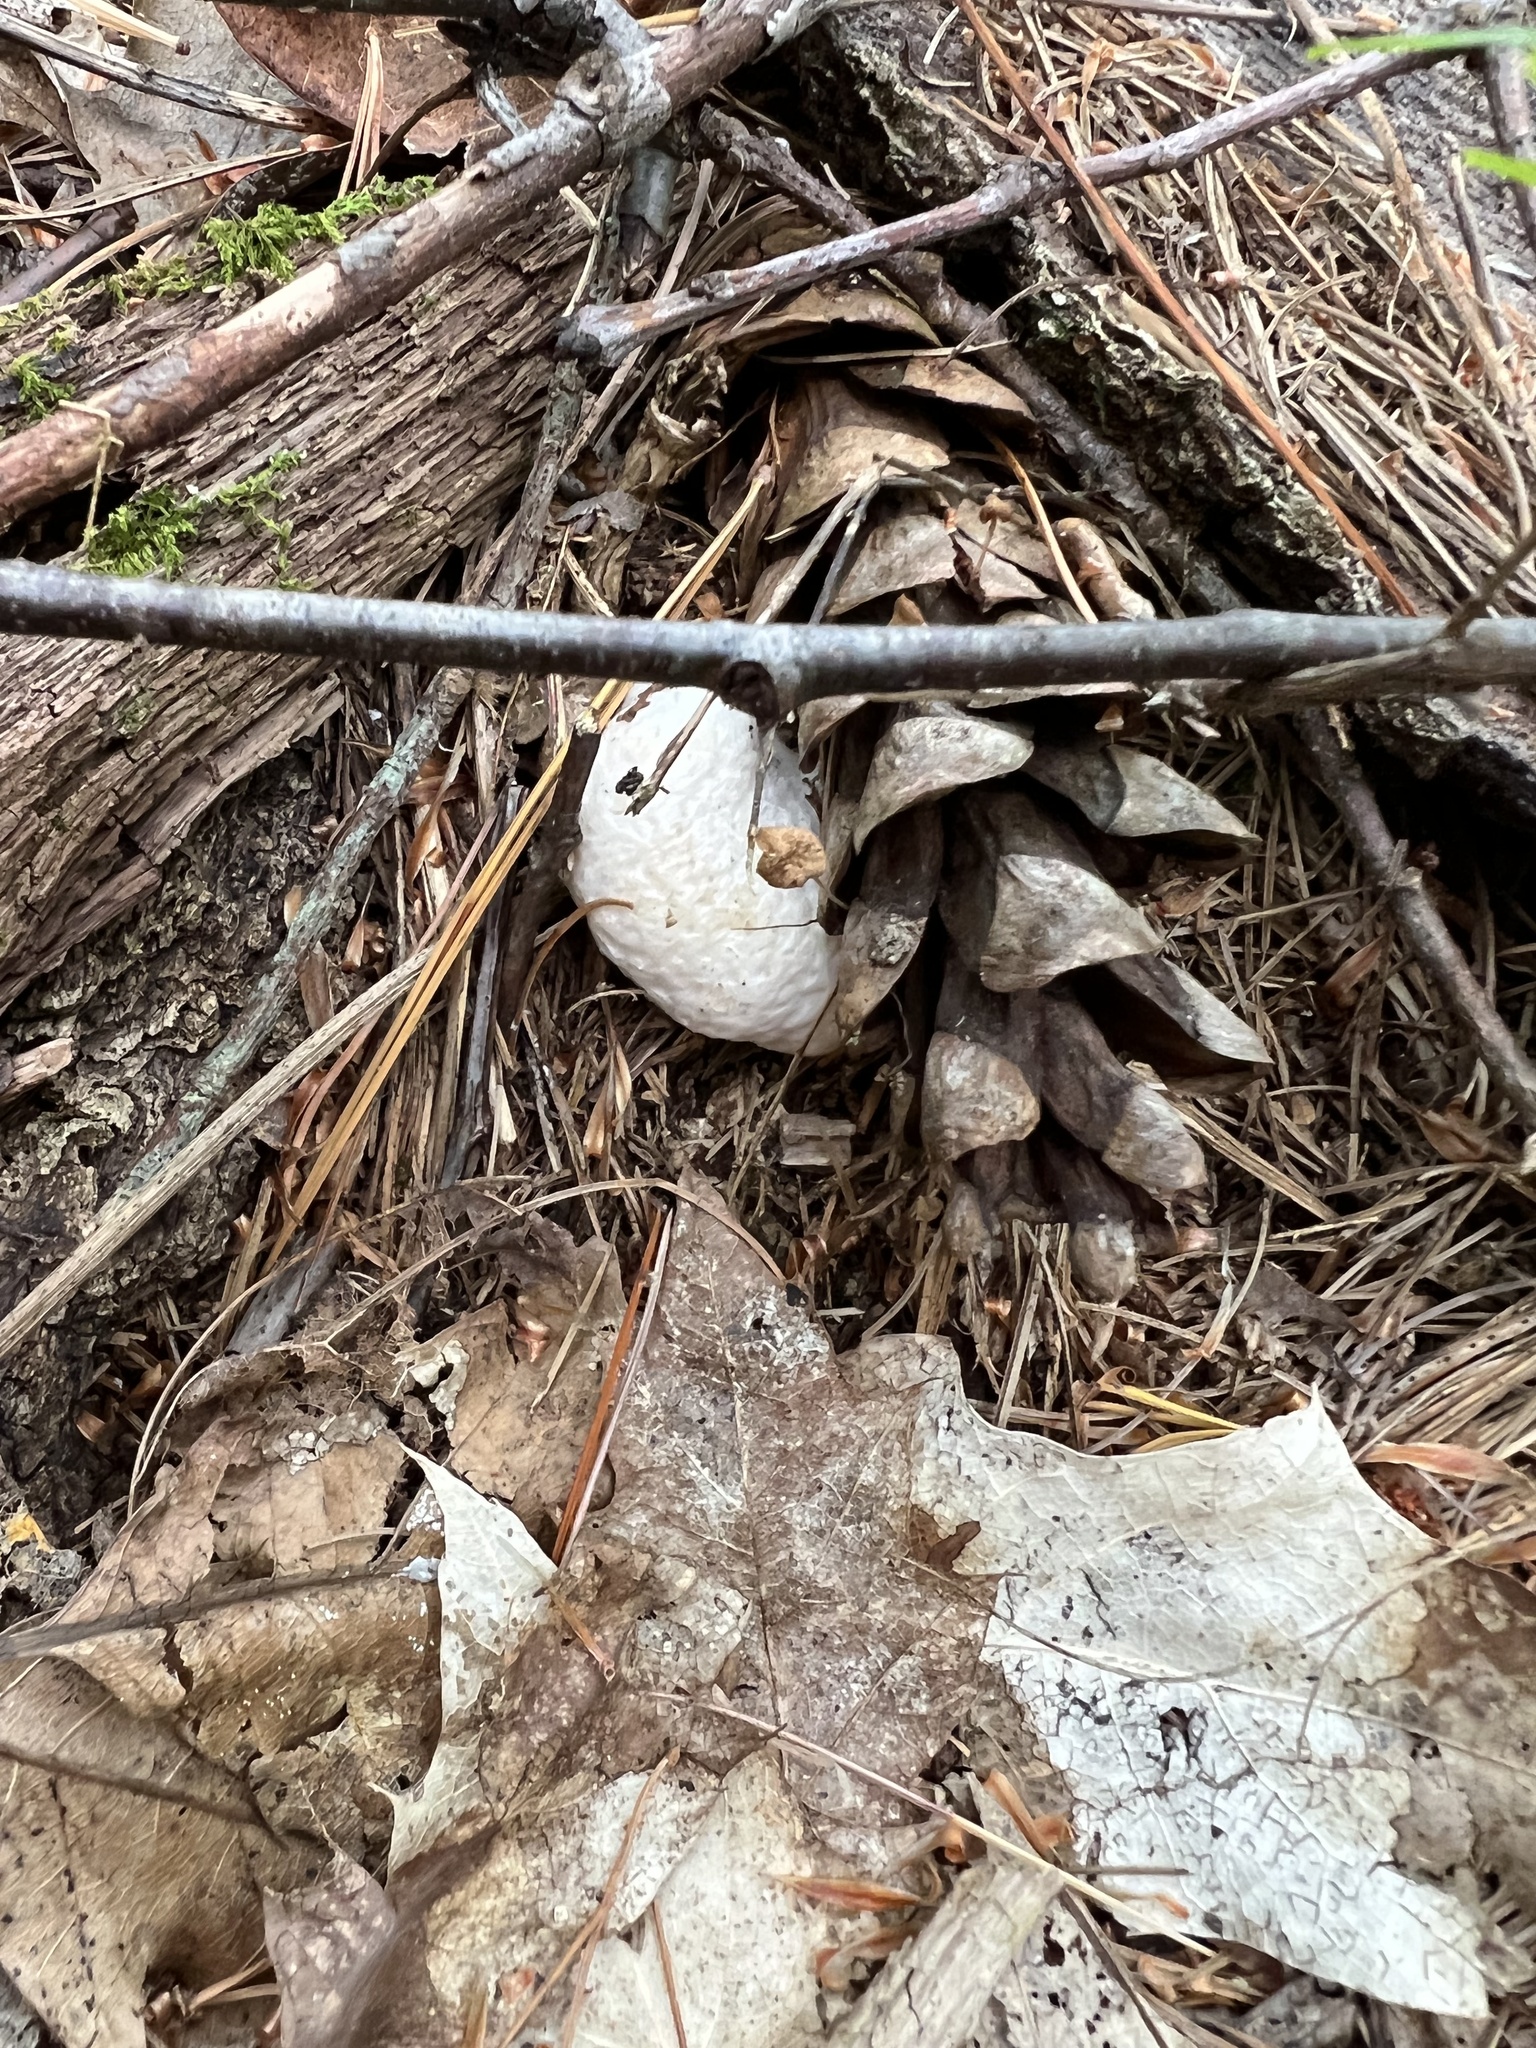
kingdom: Fungi
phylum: Basidiomycota
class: Agaricomycetes
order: Agaricales
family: Entolomataceae
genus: Entoloma
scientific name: Entoloma abortivum
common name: Aborted entoloma
